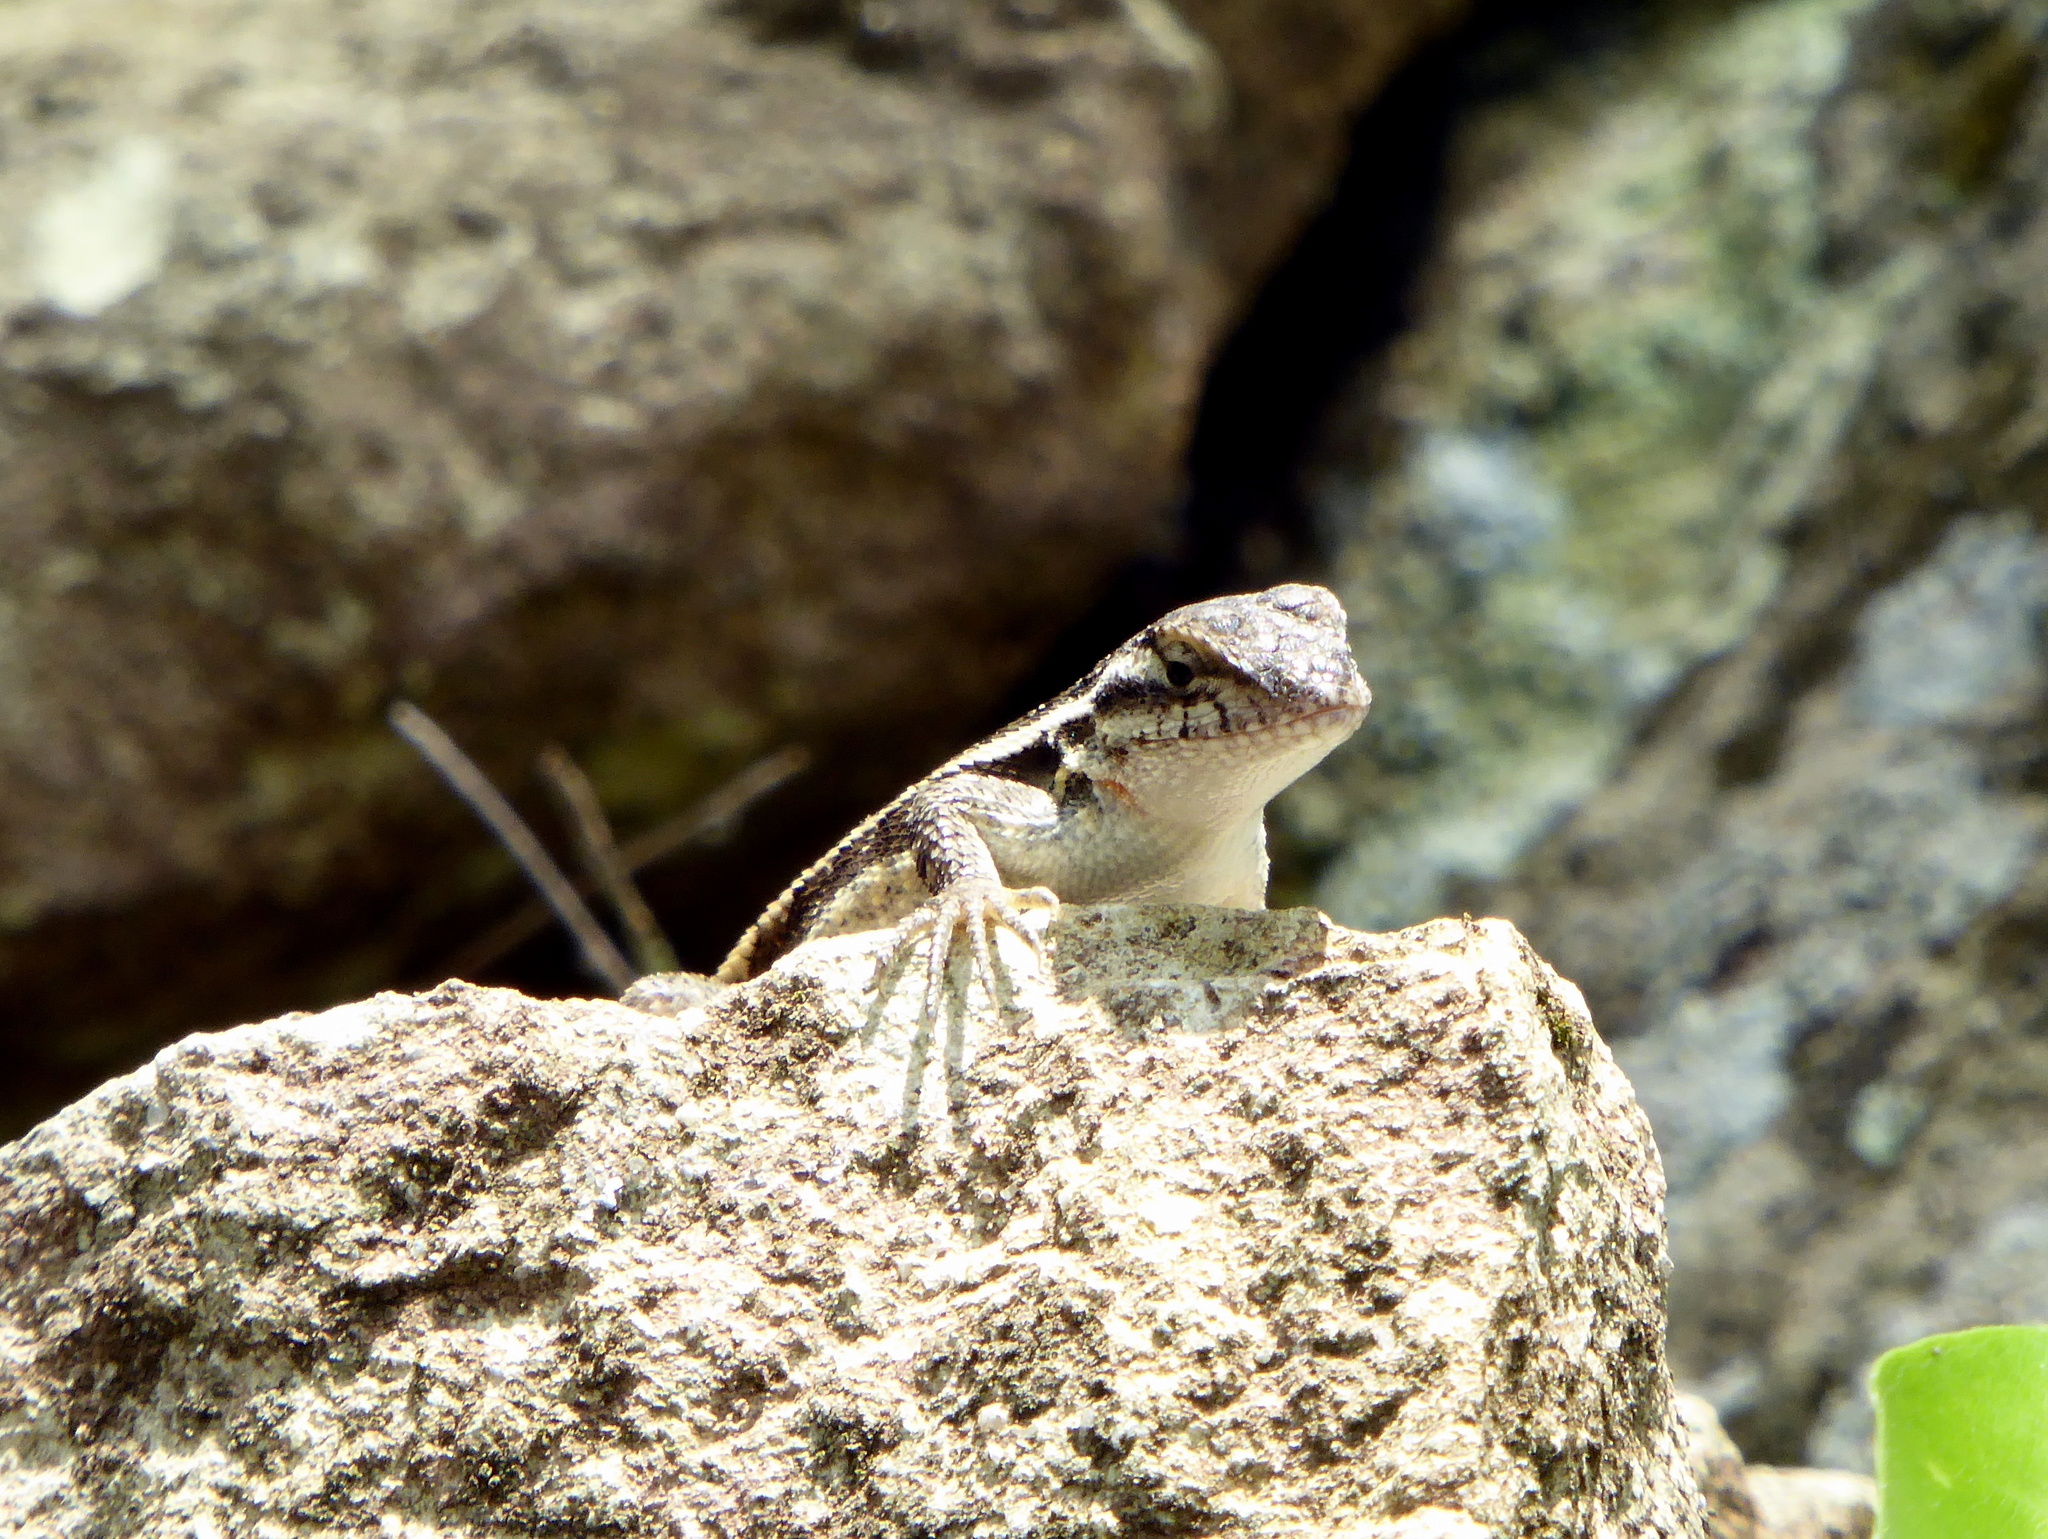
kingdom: Animalia
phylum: Chordata
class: Squamata
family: Phrynosomatidae
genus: Sceloporus
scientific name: Sceloporus variabilis
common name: Rosebelly lizard
